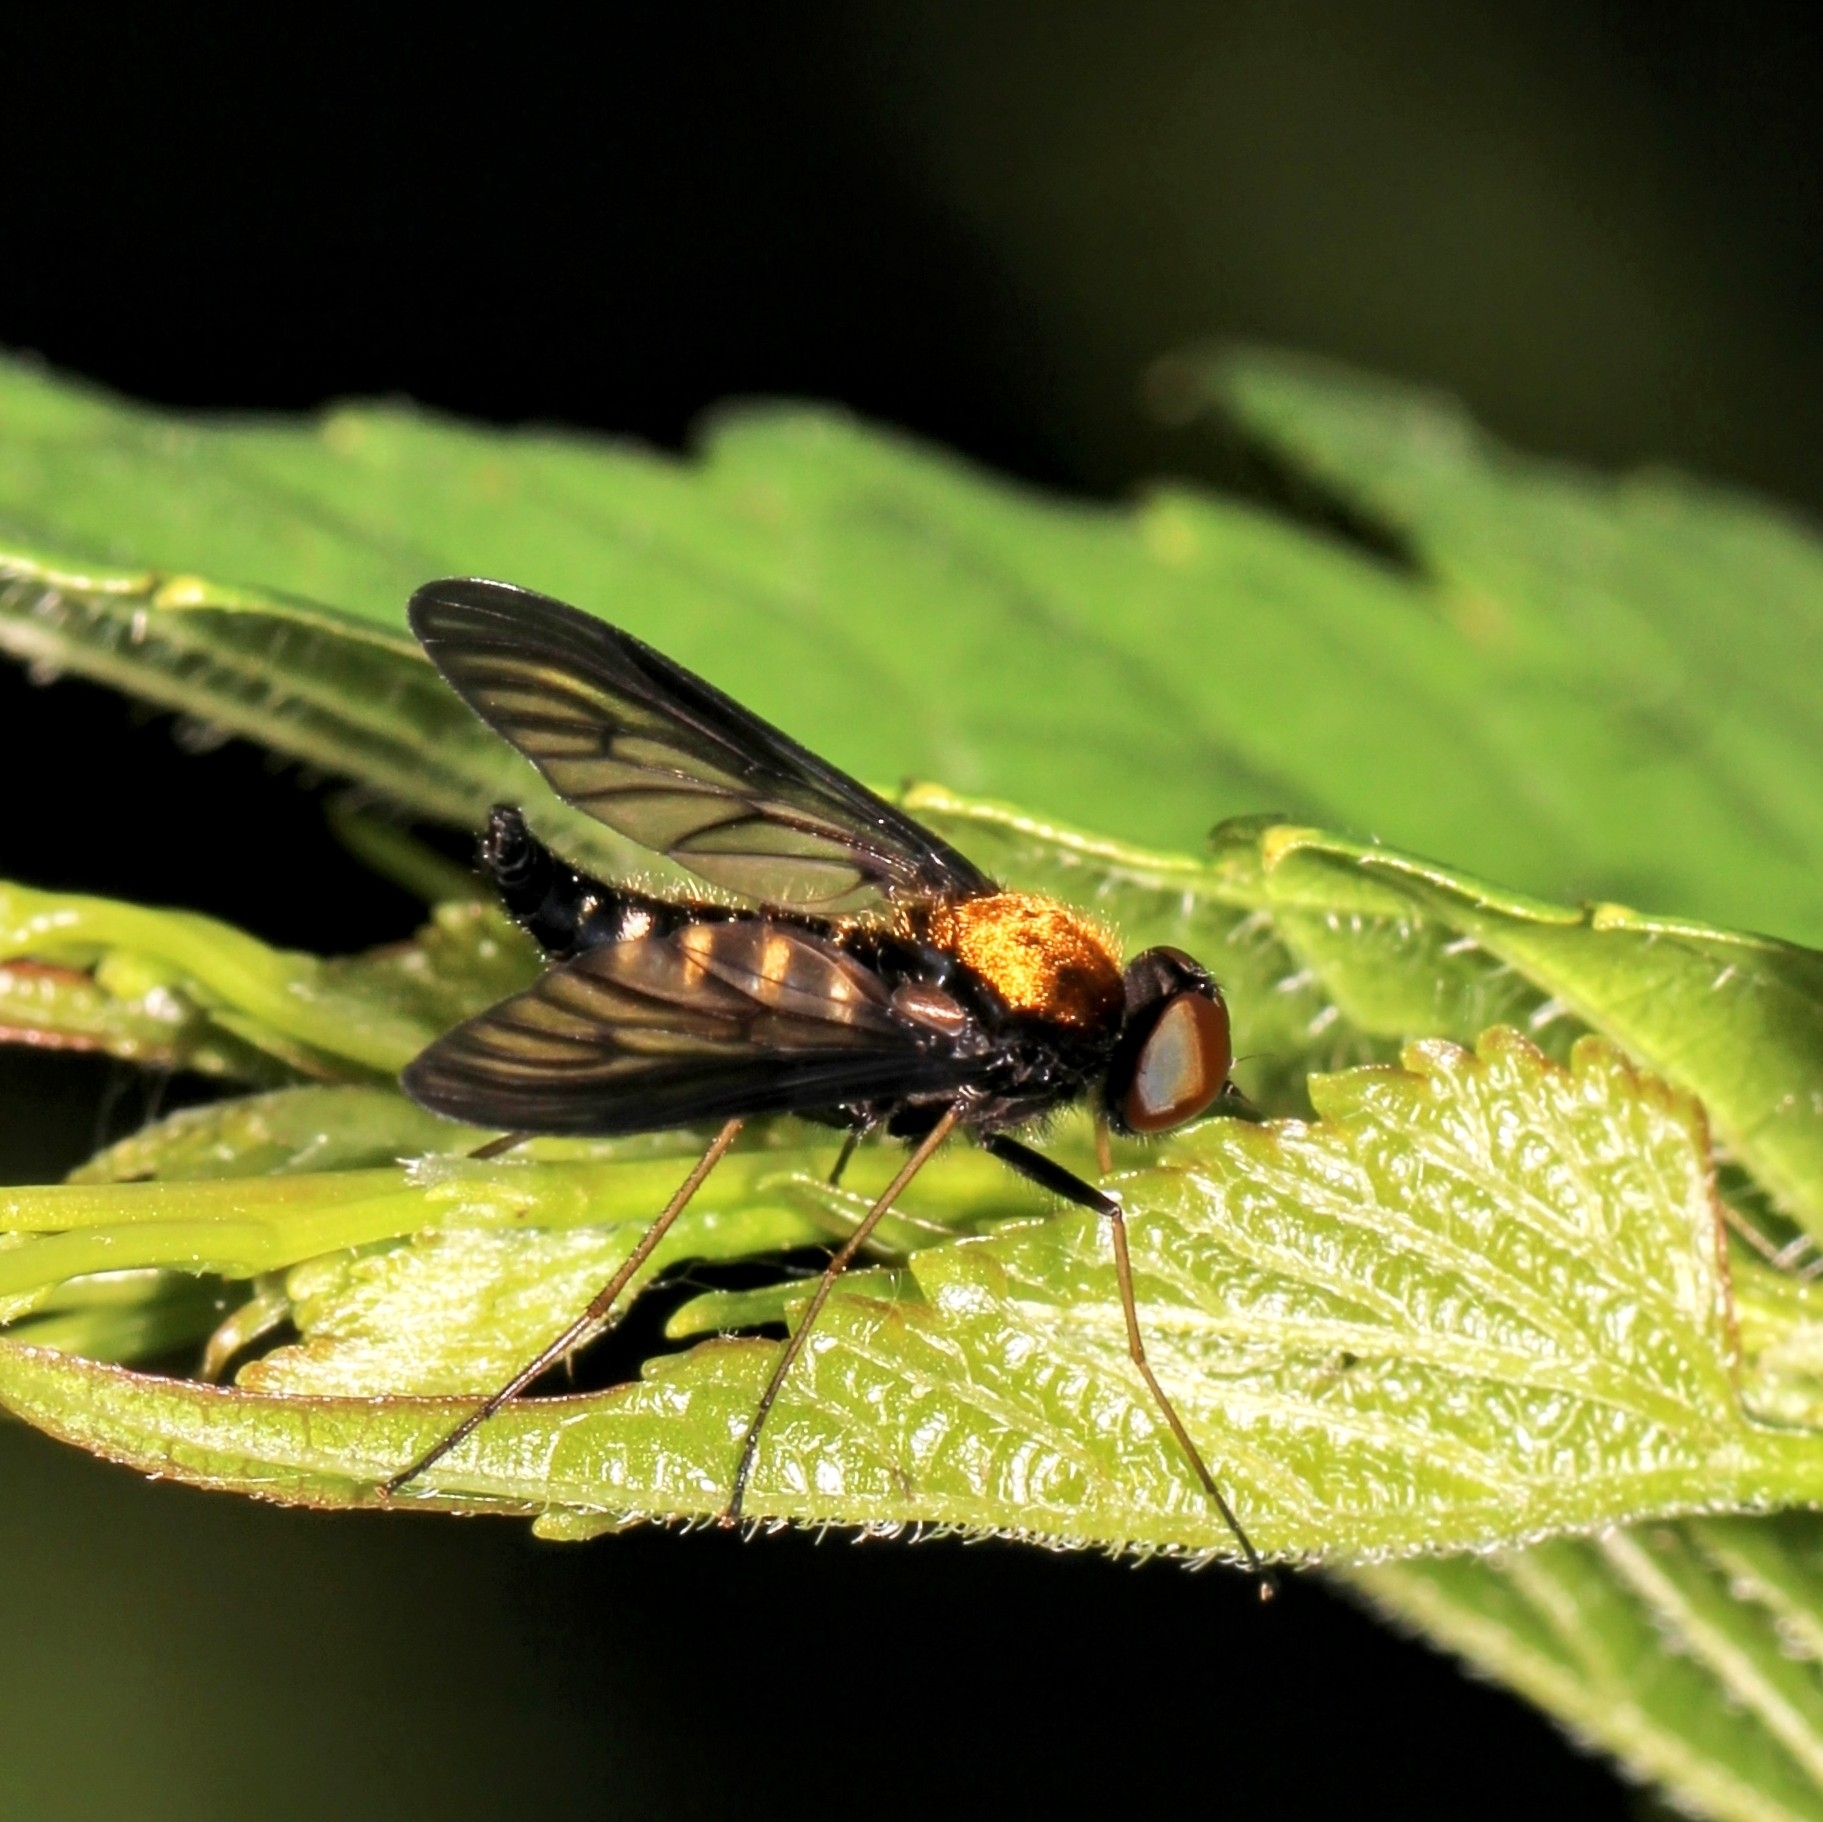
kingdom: Animalia
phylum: Arthropoda
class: Insecta
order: Diptera
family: Rhagionidae
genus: Chrysopilus
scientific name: Chrysopilus thoracicus
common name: Golden-backed snipe fly
